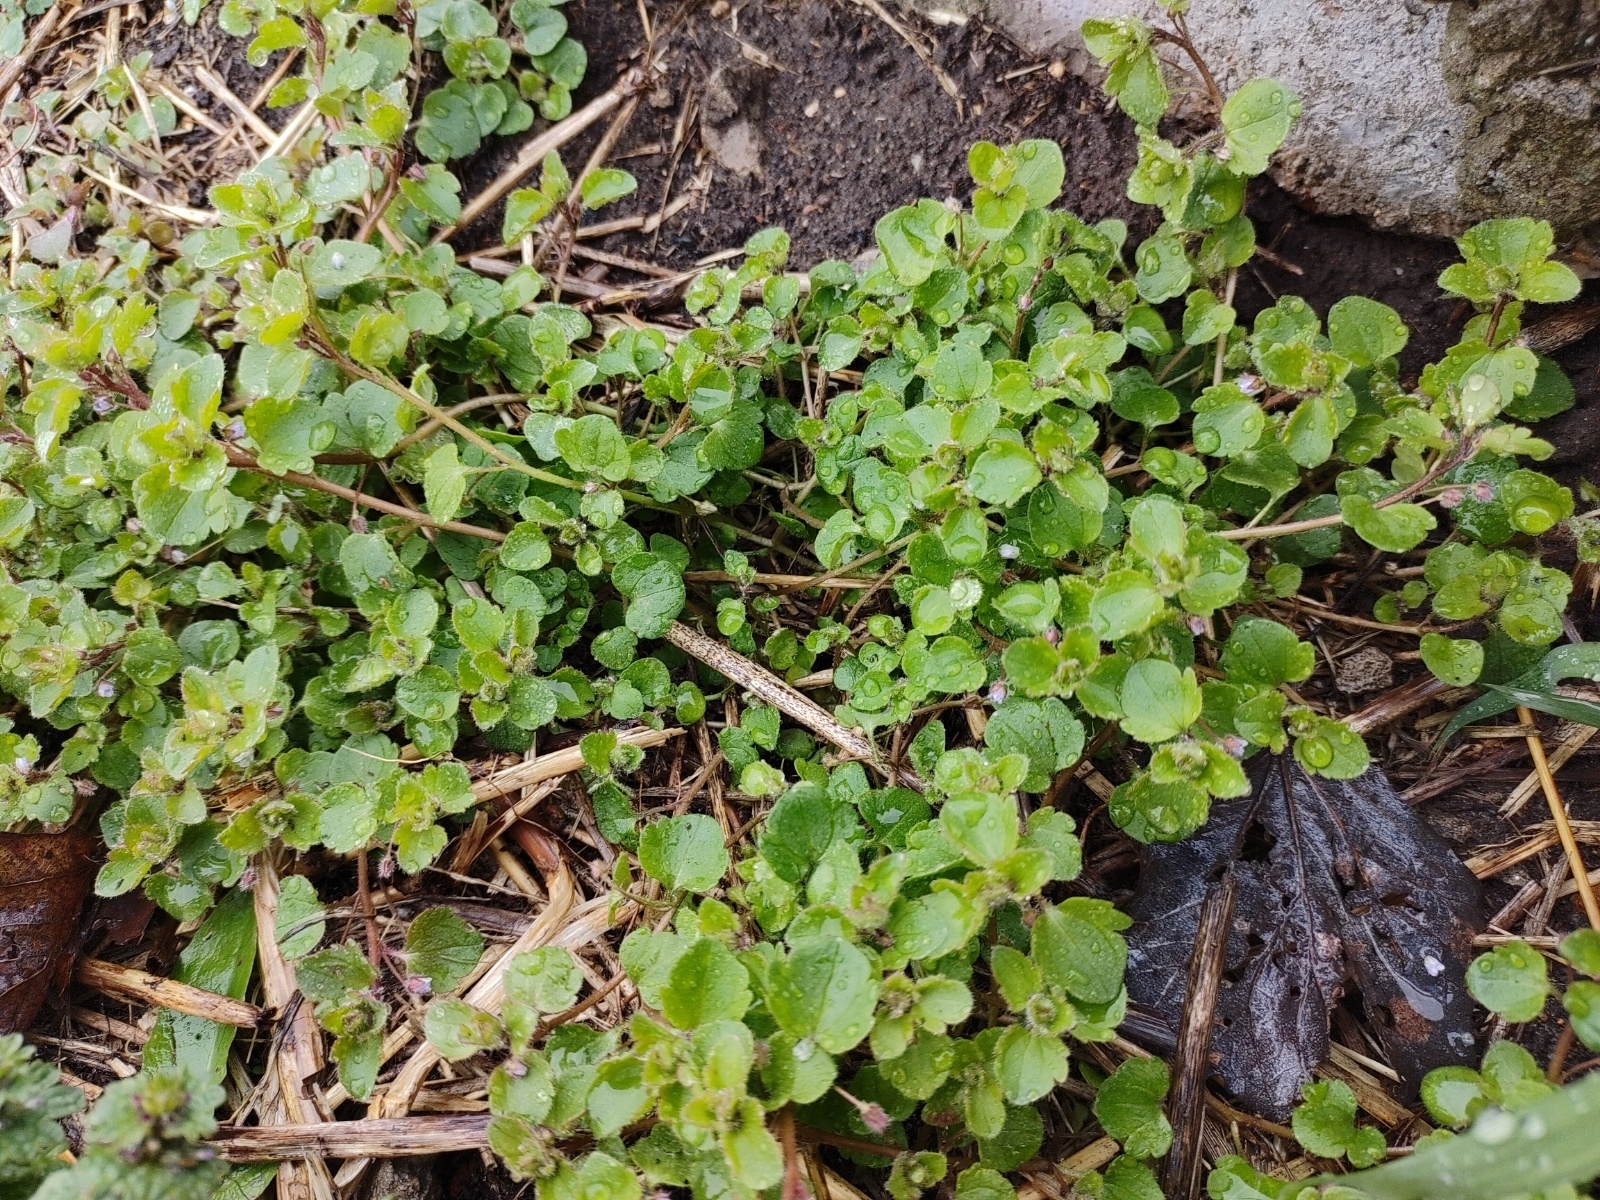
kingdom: Plantae
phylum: Tracheophyta
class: Magnoliopsida
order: Lamiales
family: Plantaginaceae
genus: Veronica
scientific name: Veronica sublobata
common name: False ivy-leaved speedwell
